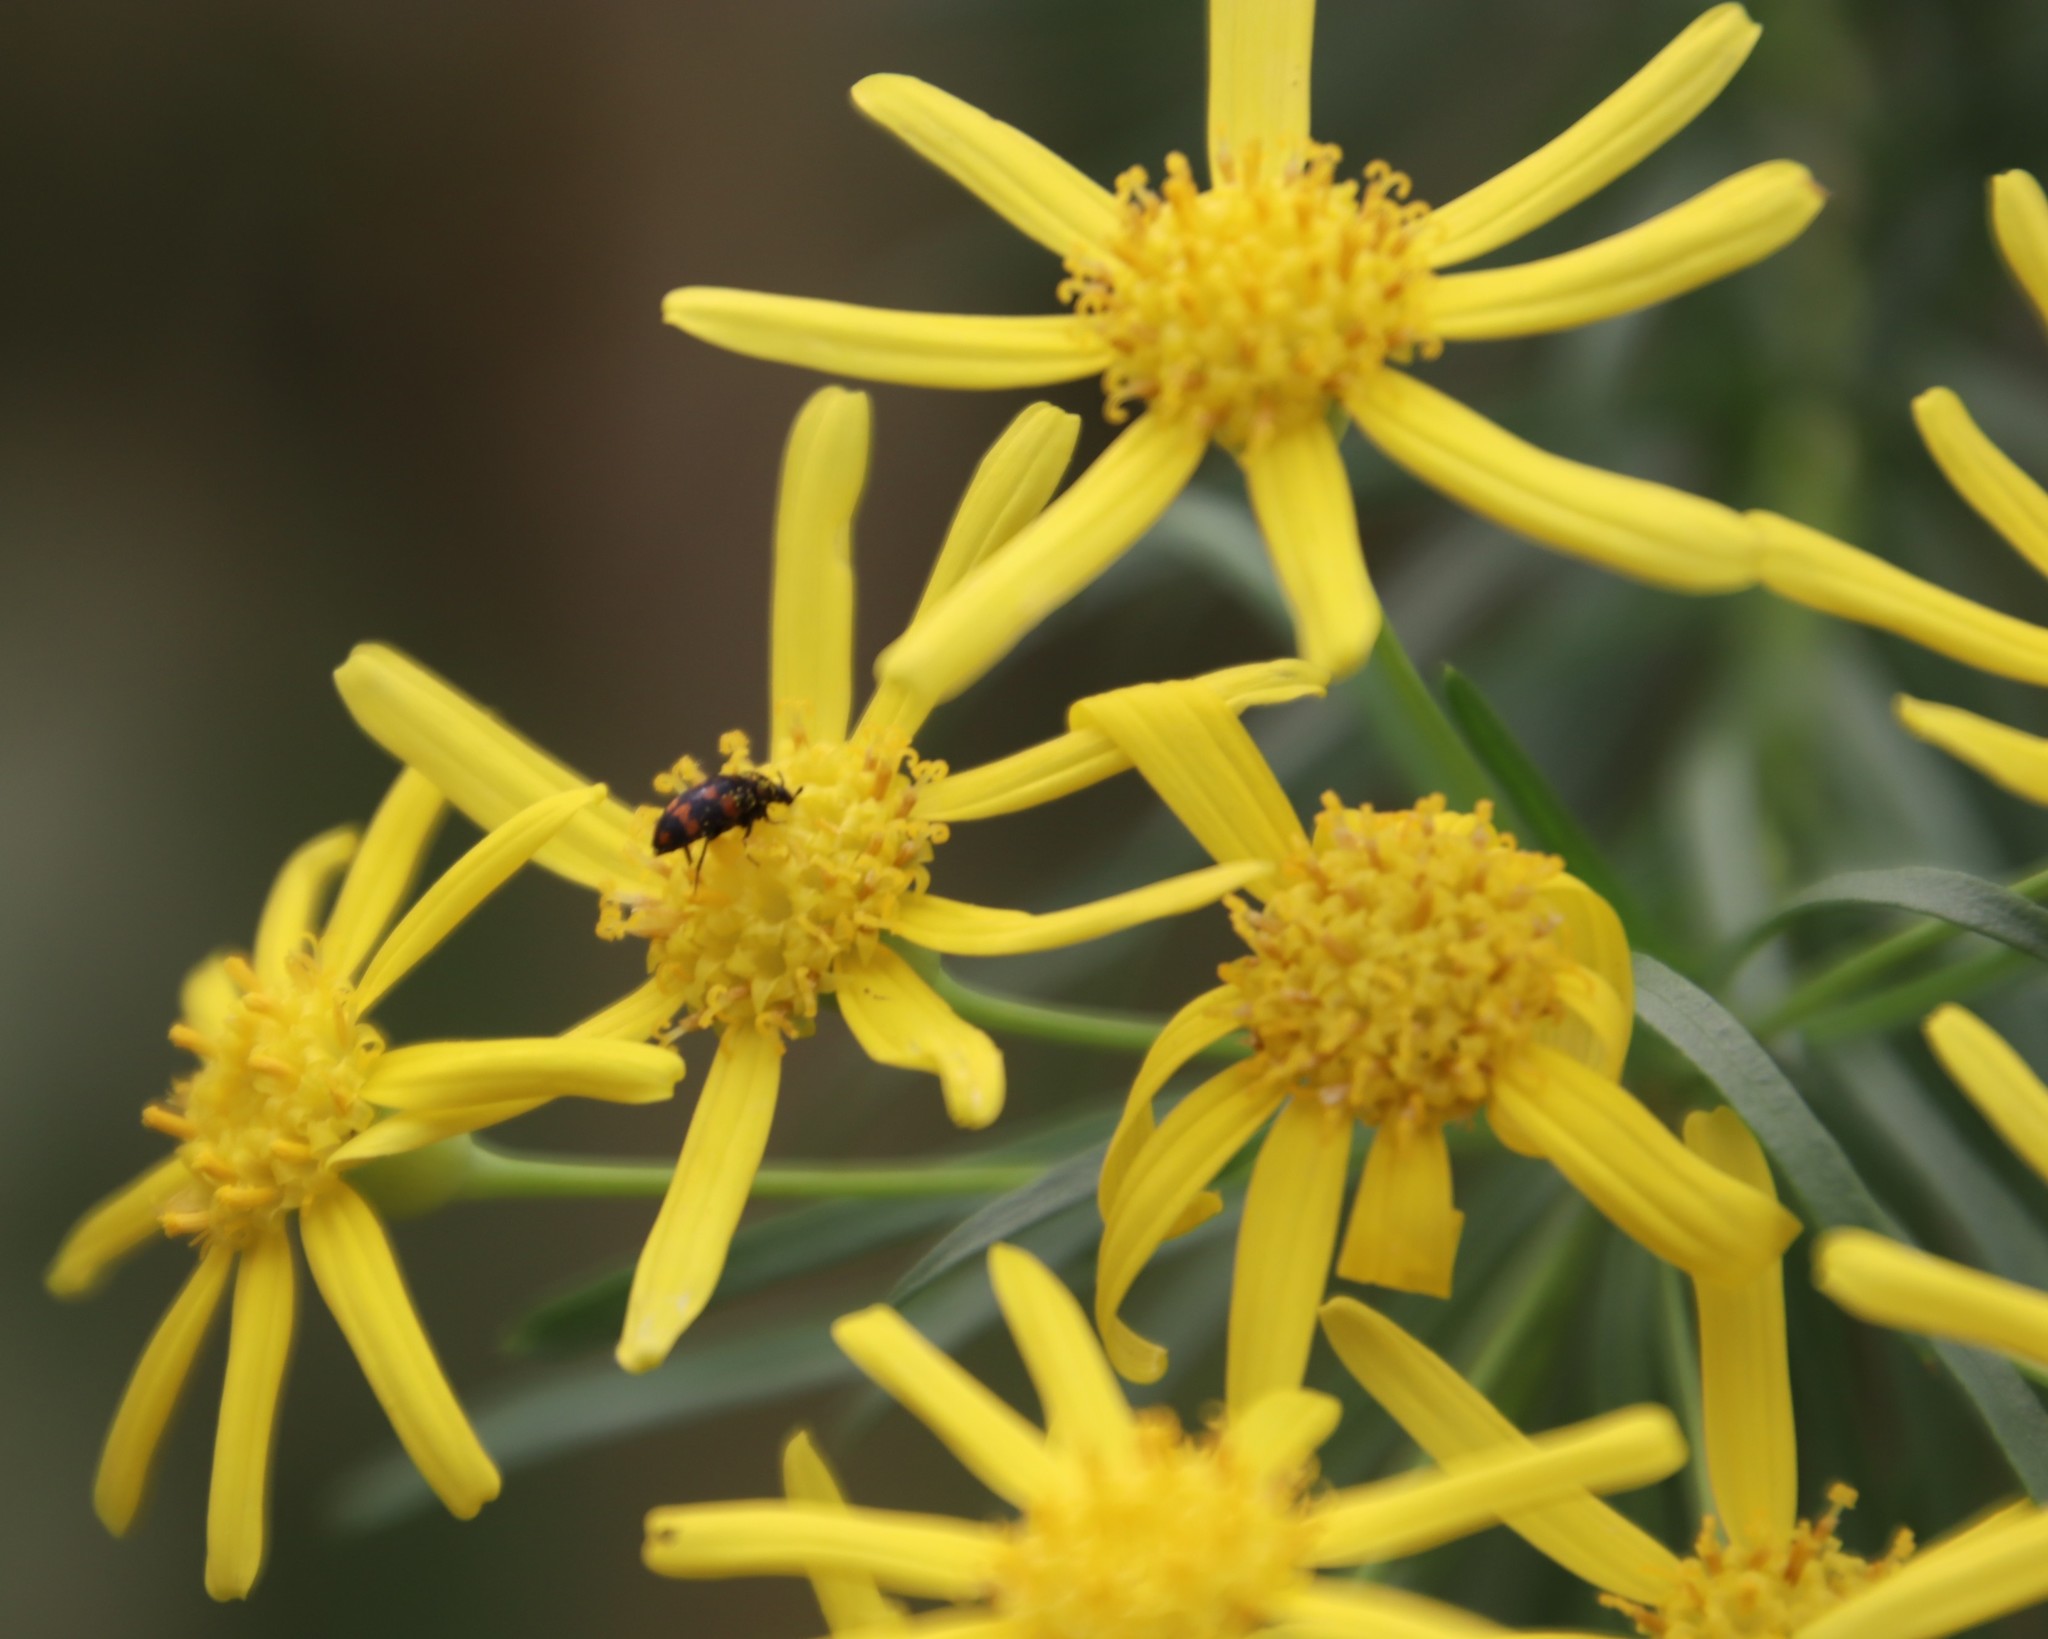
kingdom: Animalia
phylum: Arthropoda
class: Insecta
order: Coleoptera
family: Dermestidae
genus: Attagenus
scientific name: Attagenus
